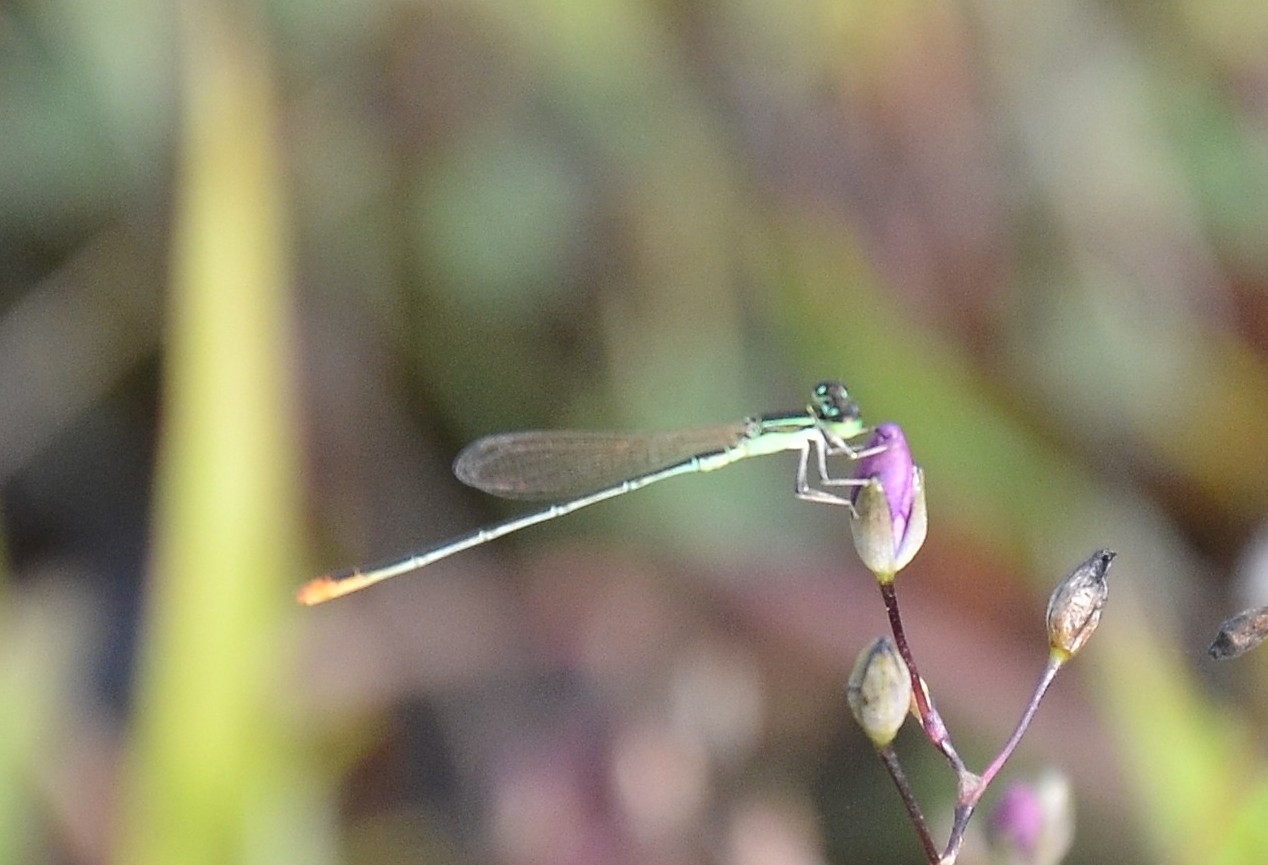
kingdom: Animalia
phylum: Arthropoda
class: Insecta
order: Odonata
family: Coenagrionidae
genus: Agriocnemis
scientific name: Agriocnemis pygmaea
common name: Pygmy wisp
